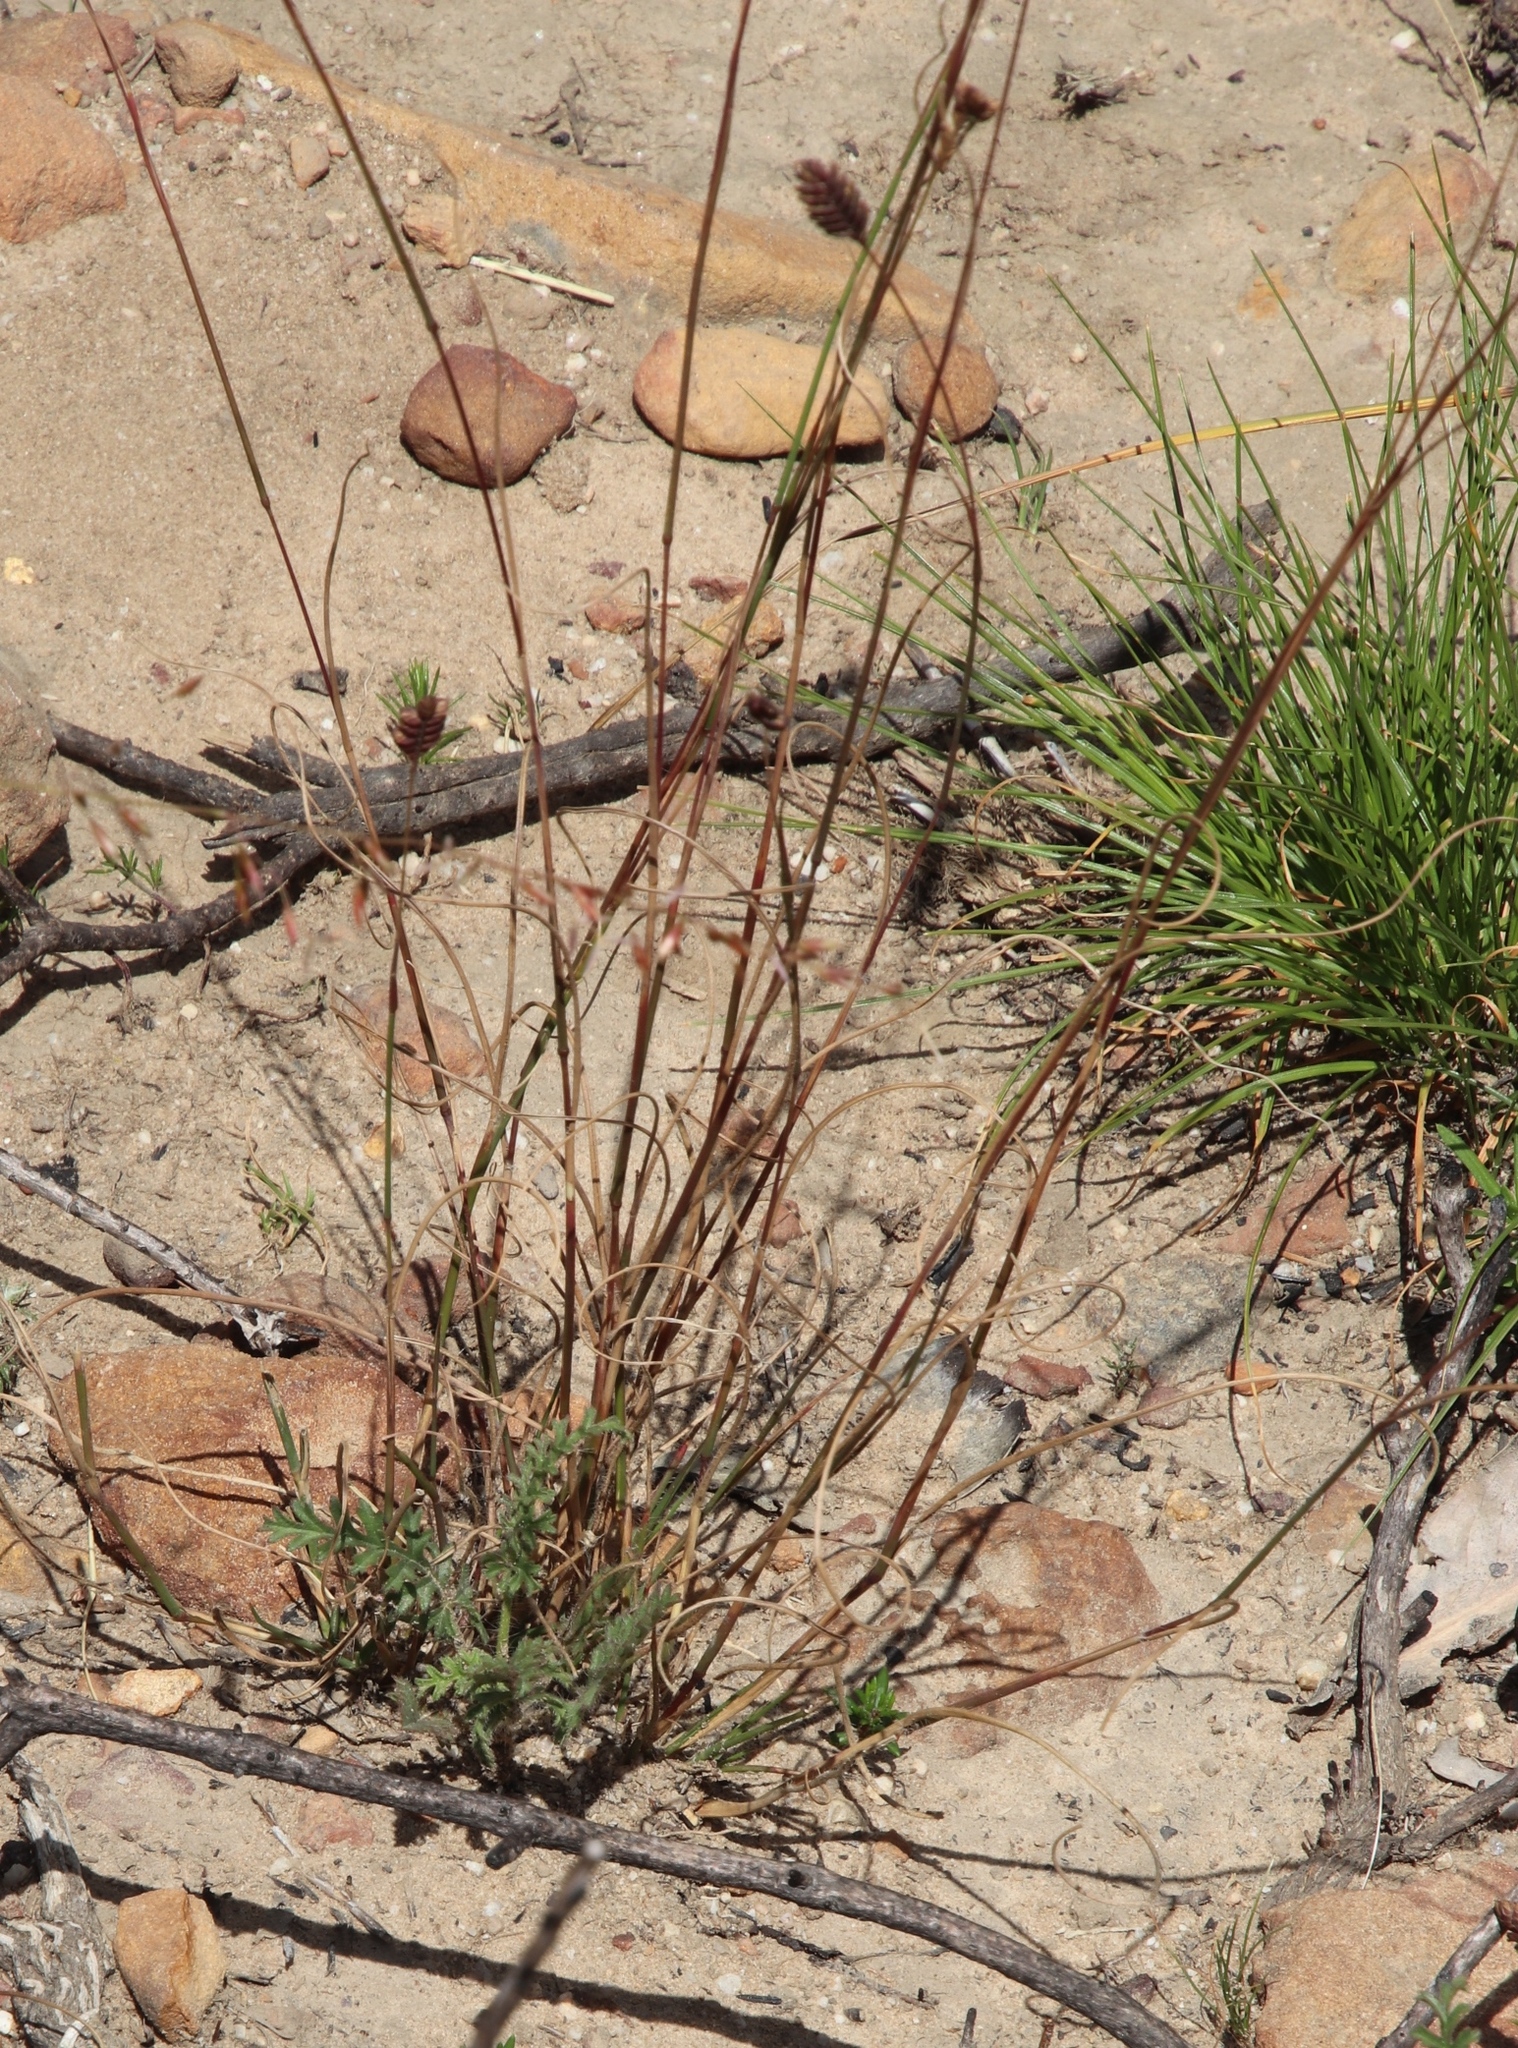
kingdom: Plantae
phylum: Tracheophyta
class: Liliopsida
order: Poales
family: Poaceae
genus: Tribolium
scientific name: Tribolium uniolae
